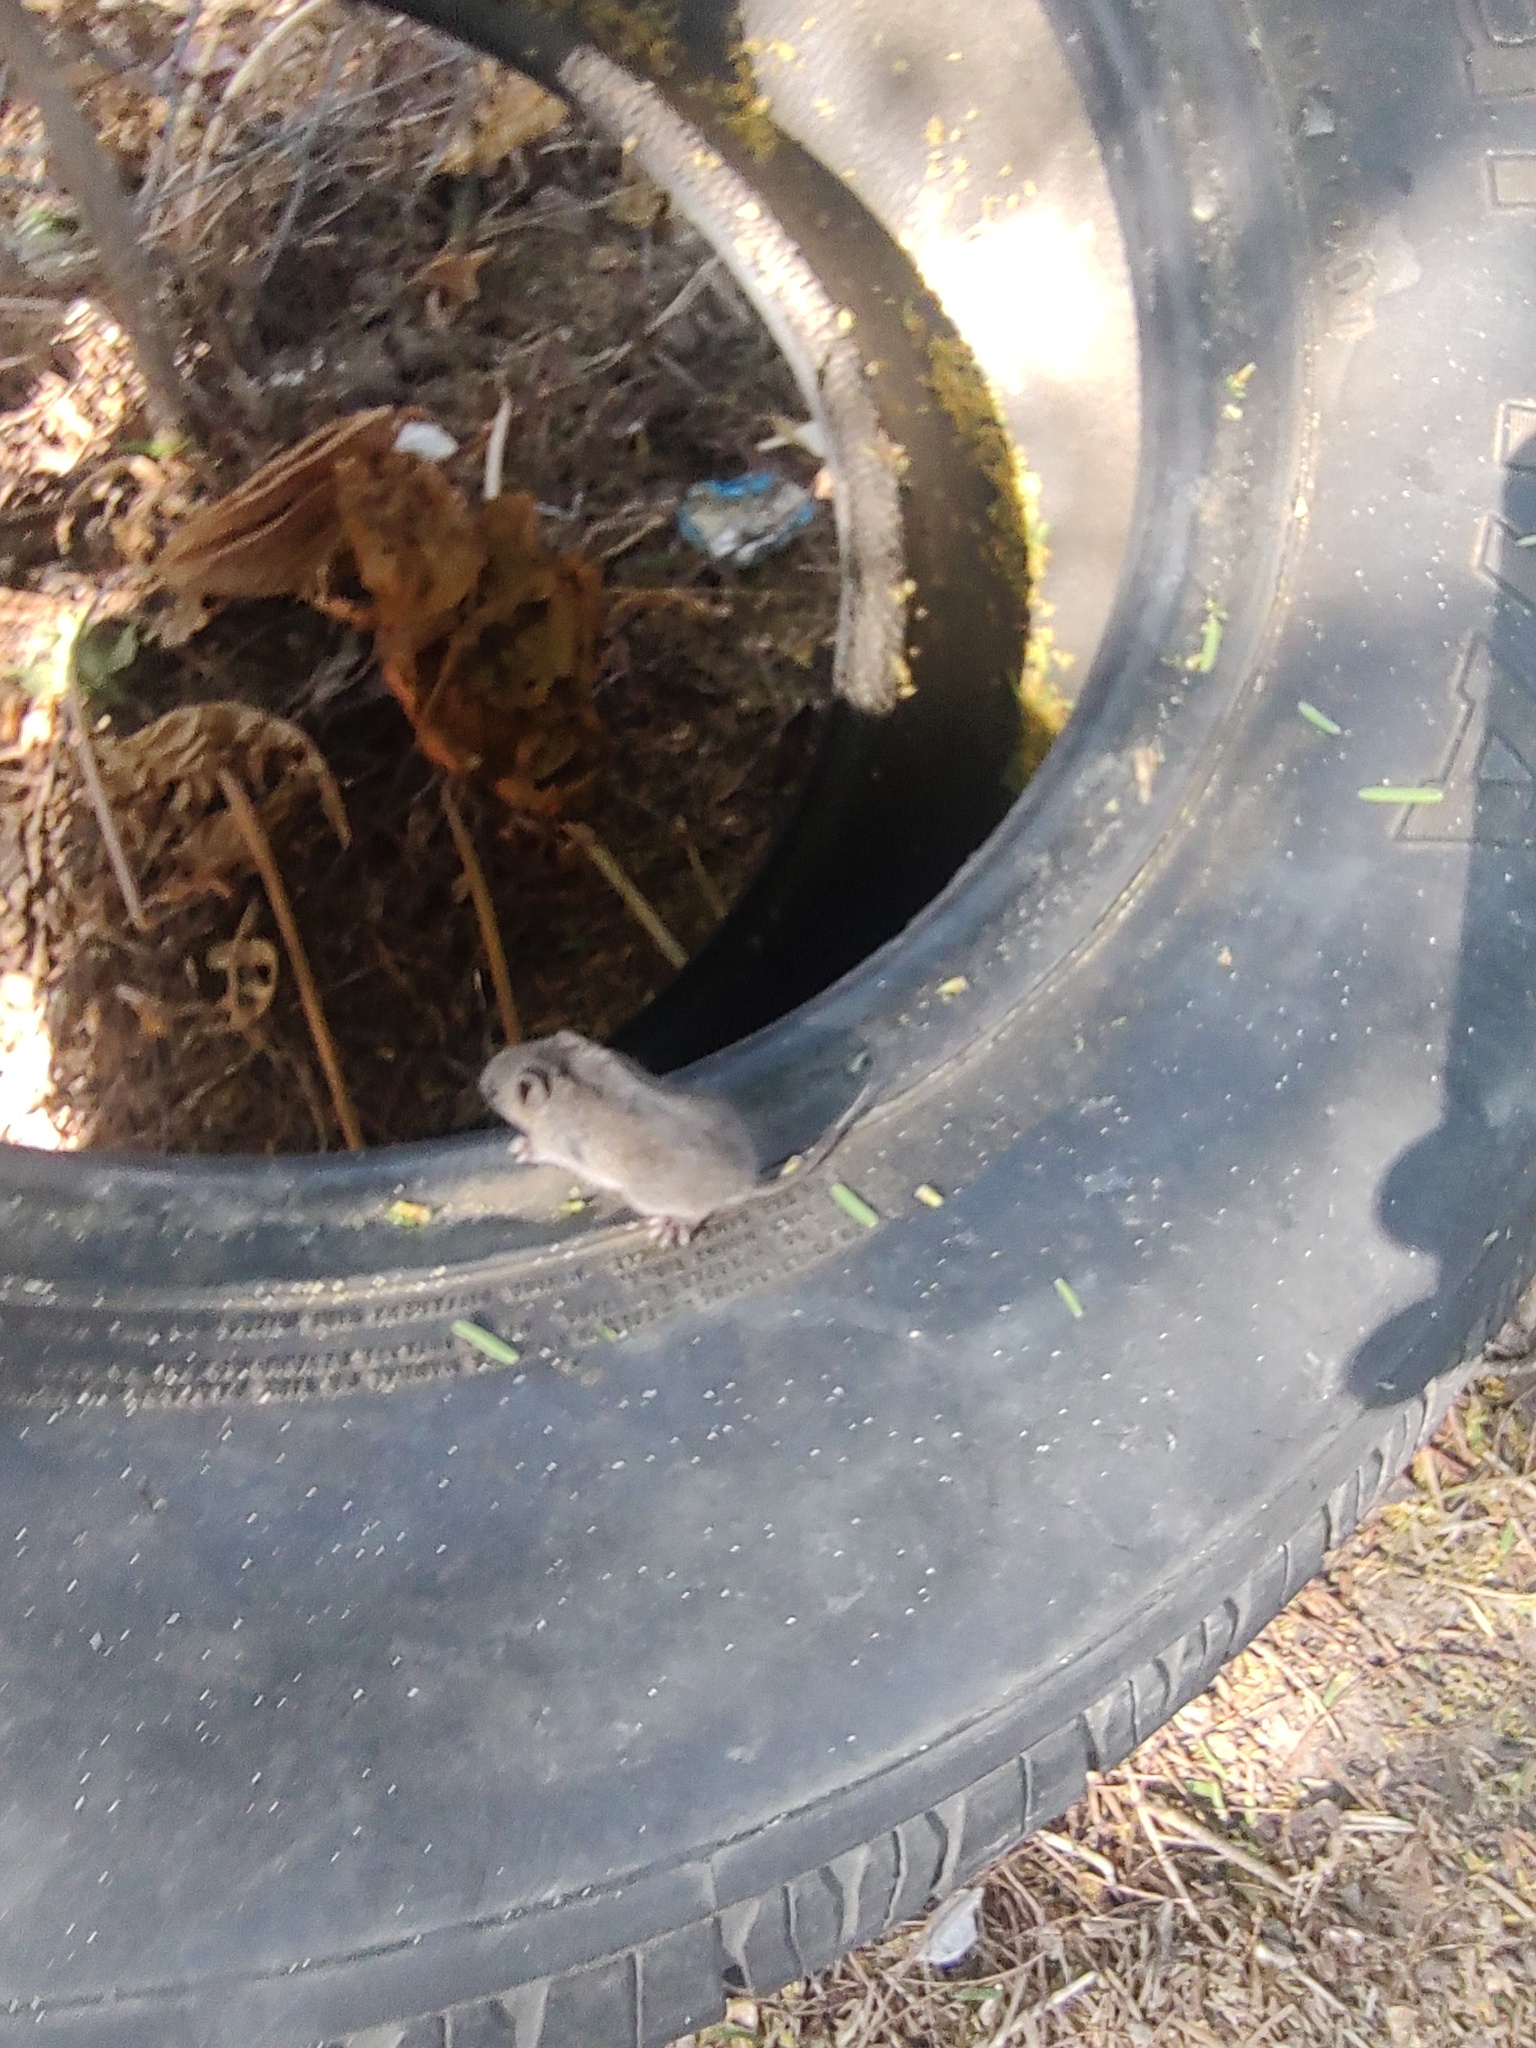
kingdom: Animalia
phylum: Chordata
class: Mammalia
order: Rodentia
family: Cricetidae
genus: Baiomys
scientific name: Baiomys taylori
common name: Northern pygmy mouse
